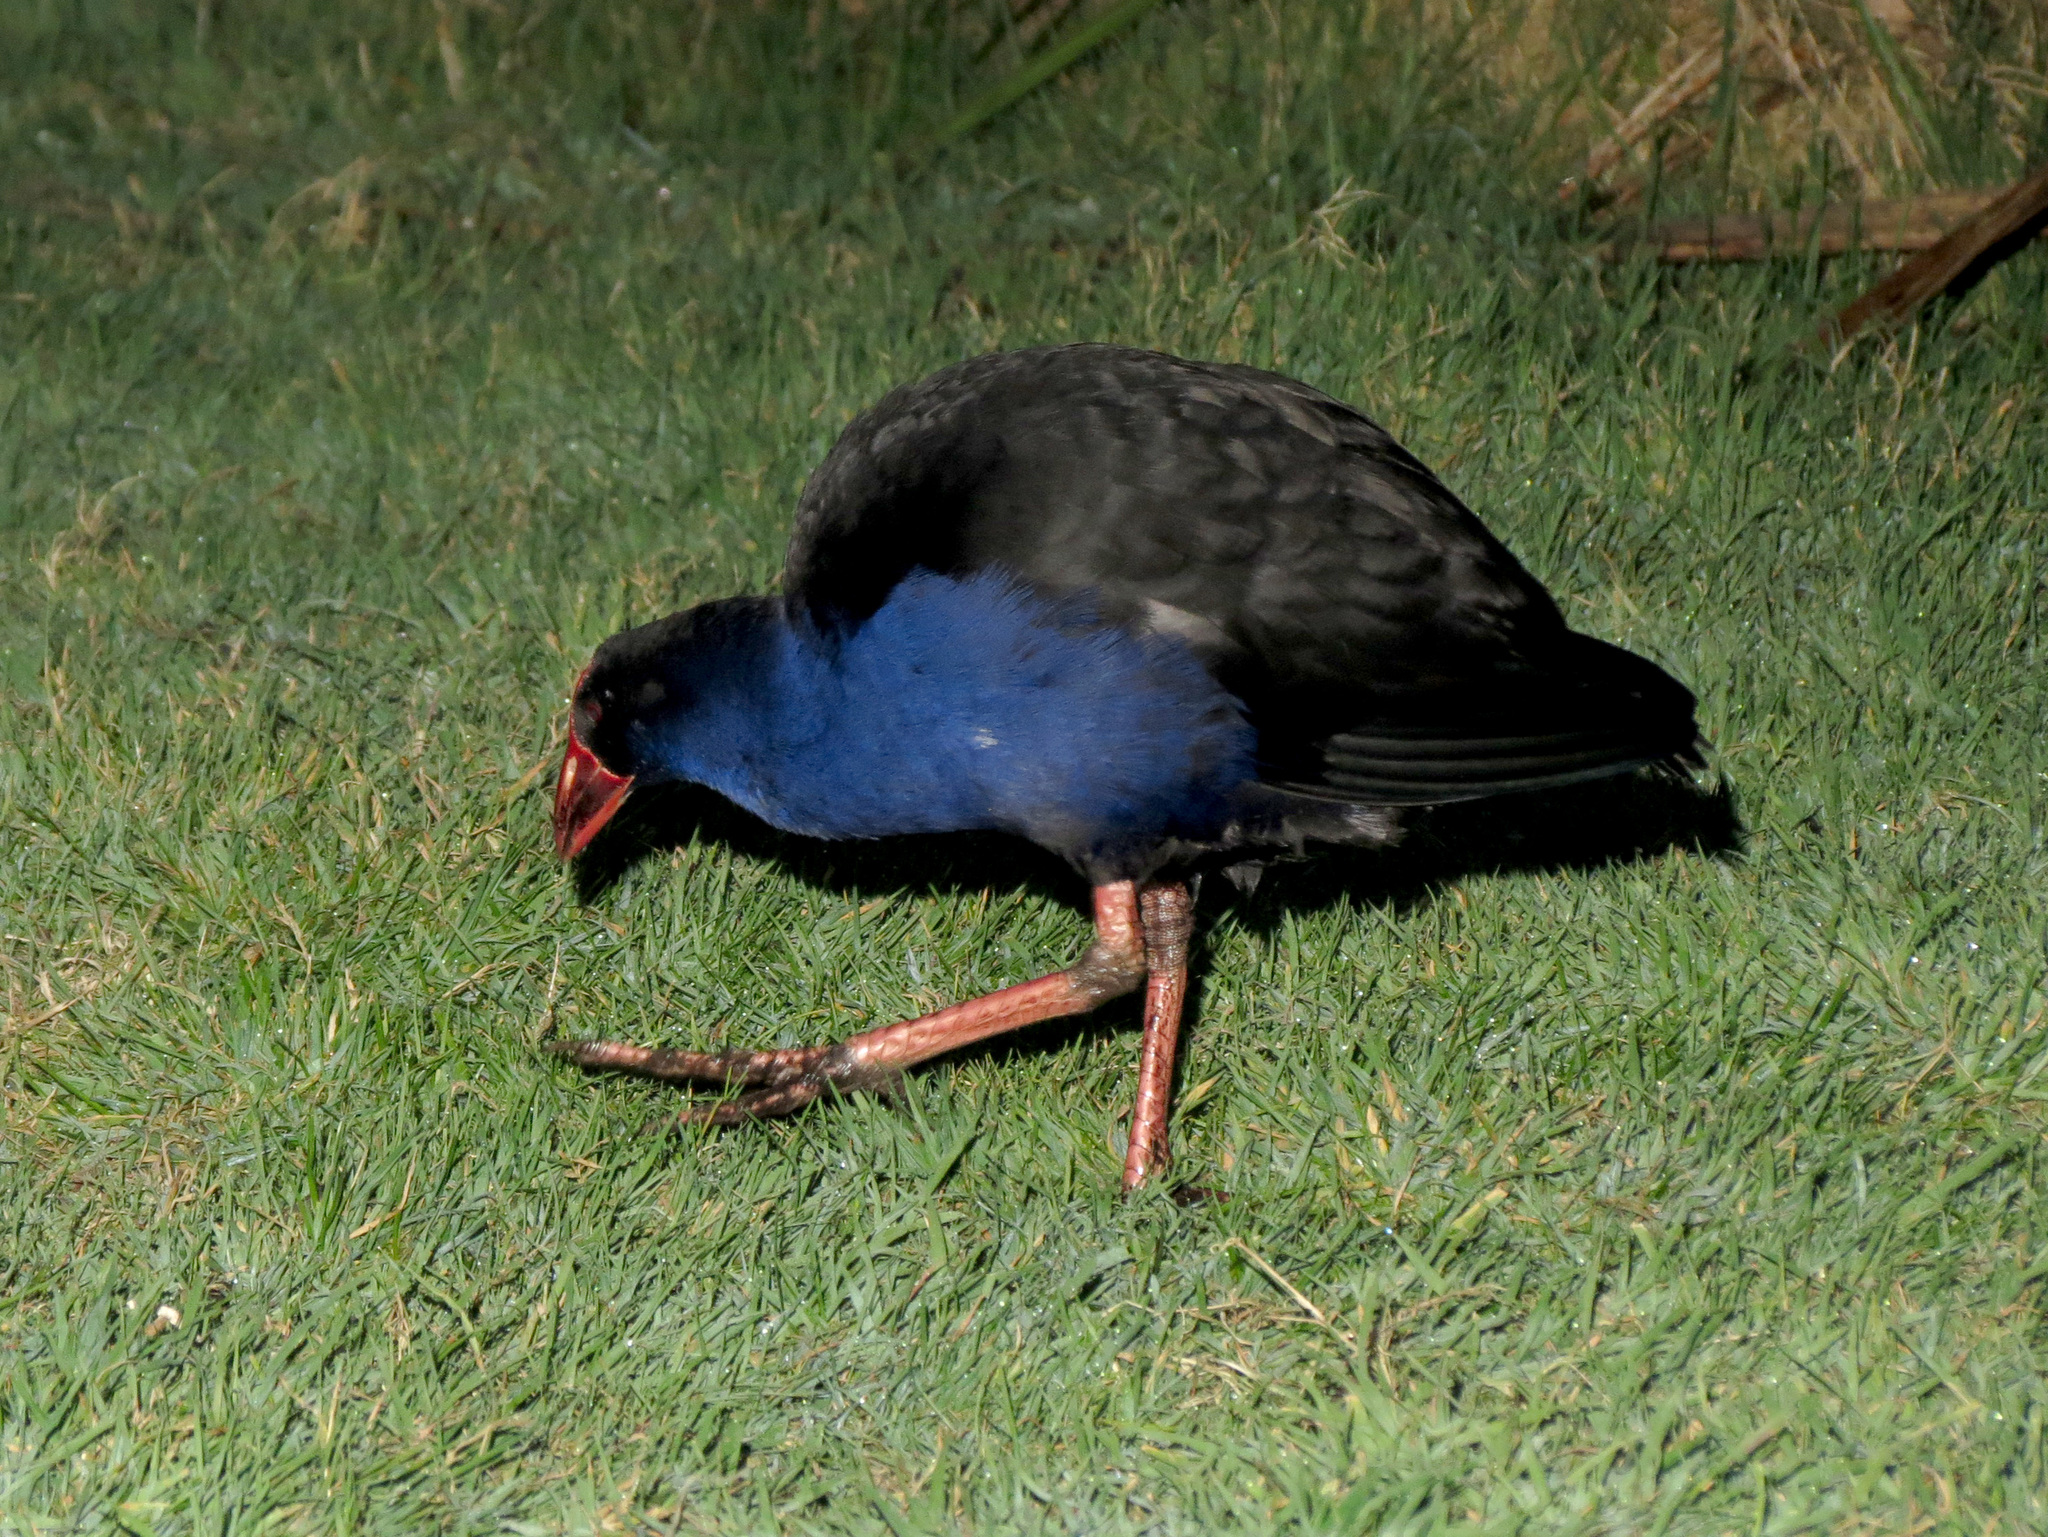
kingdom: Animalia
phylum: Chordata
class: Aves
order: Gruiformes
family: Rallidae
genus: Porphyrio
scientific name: Porphyrio melanotus
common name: Australasian swamphen
